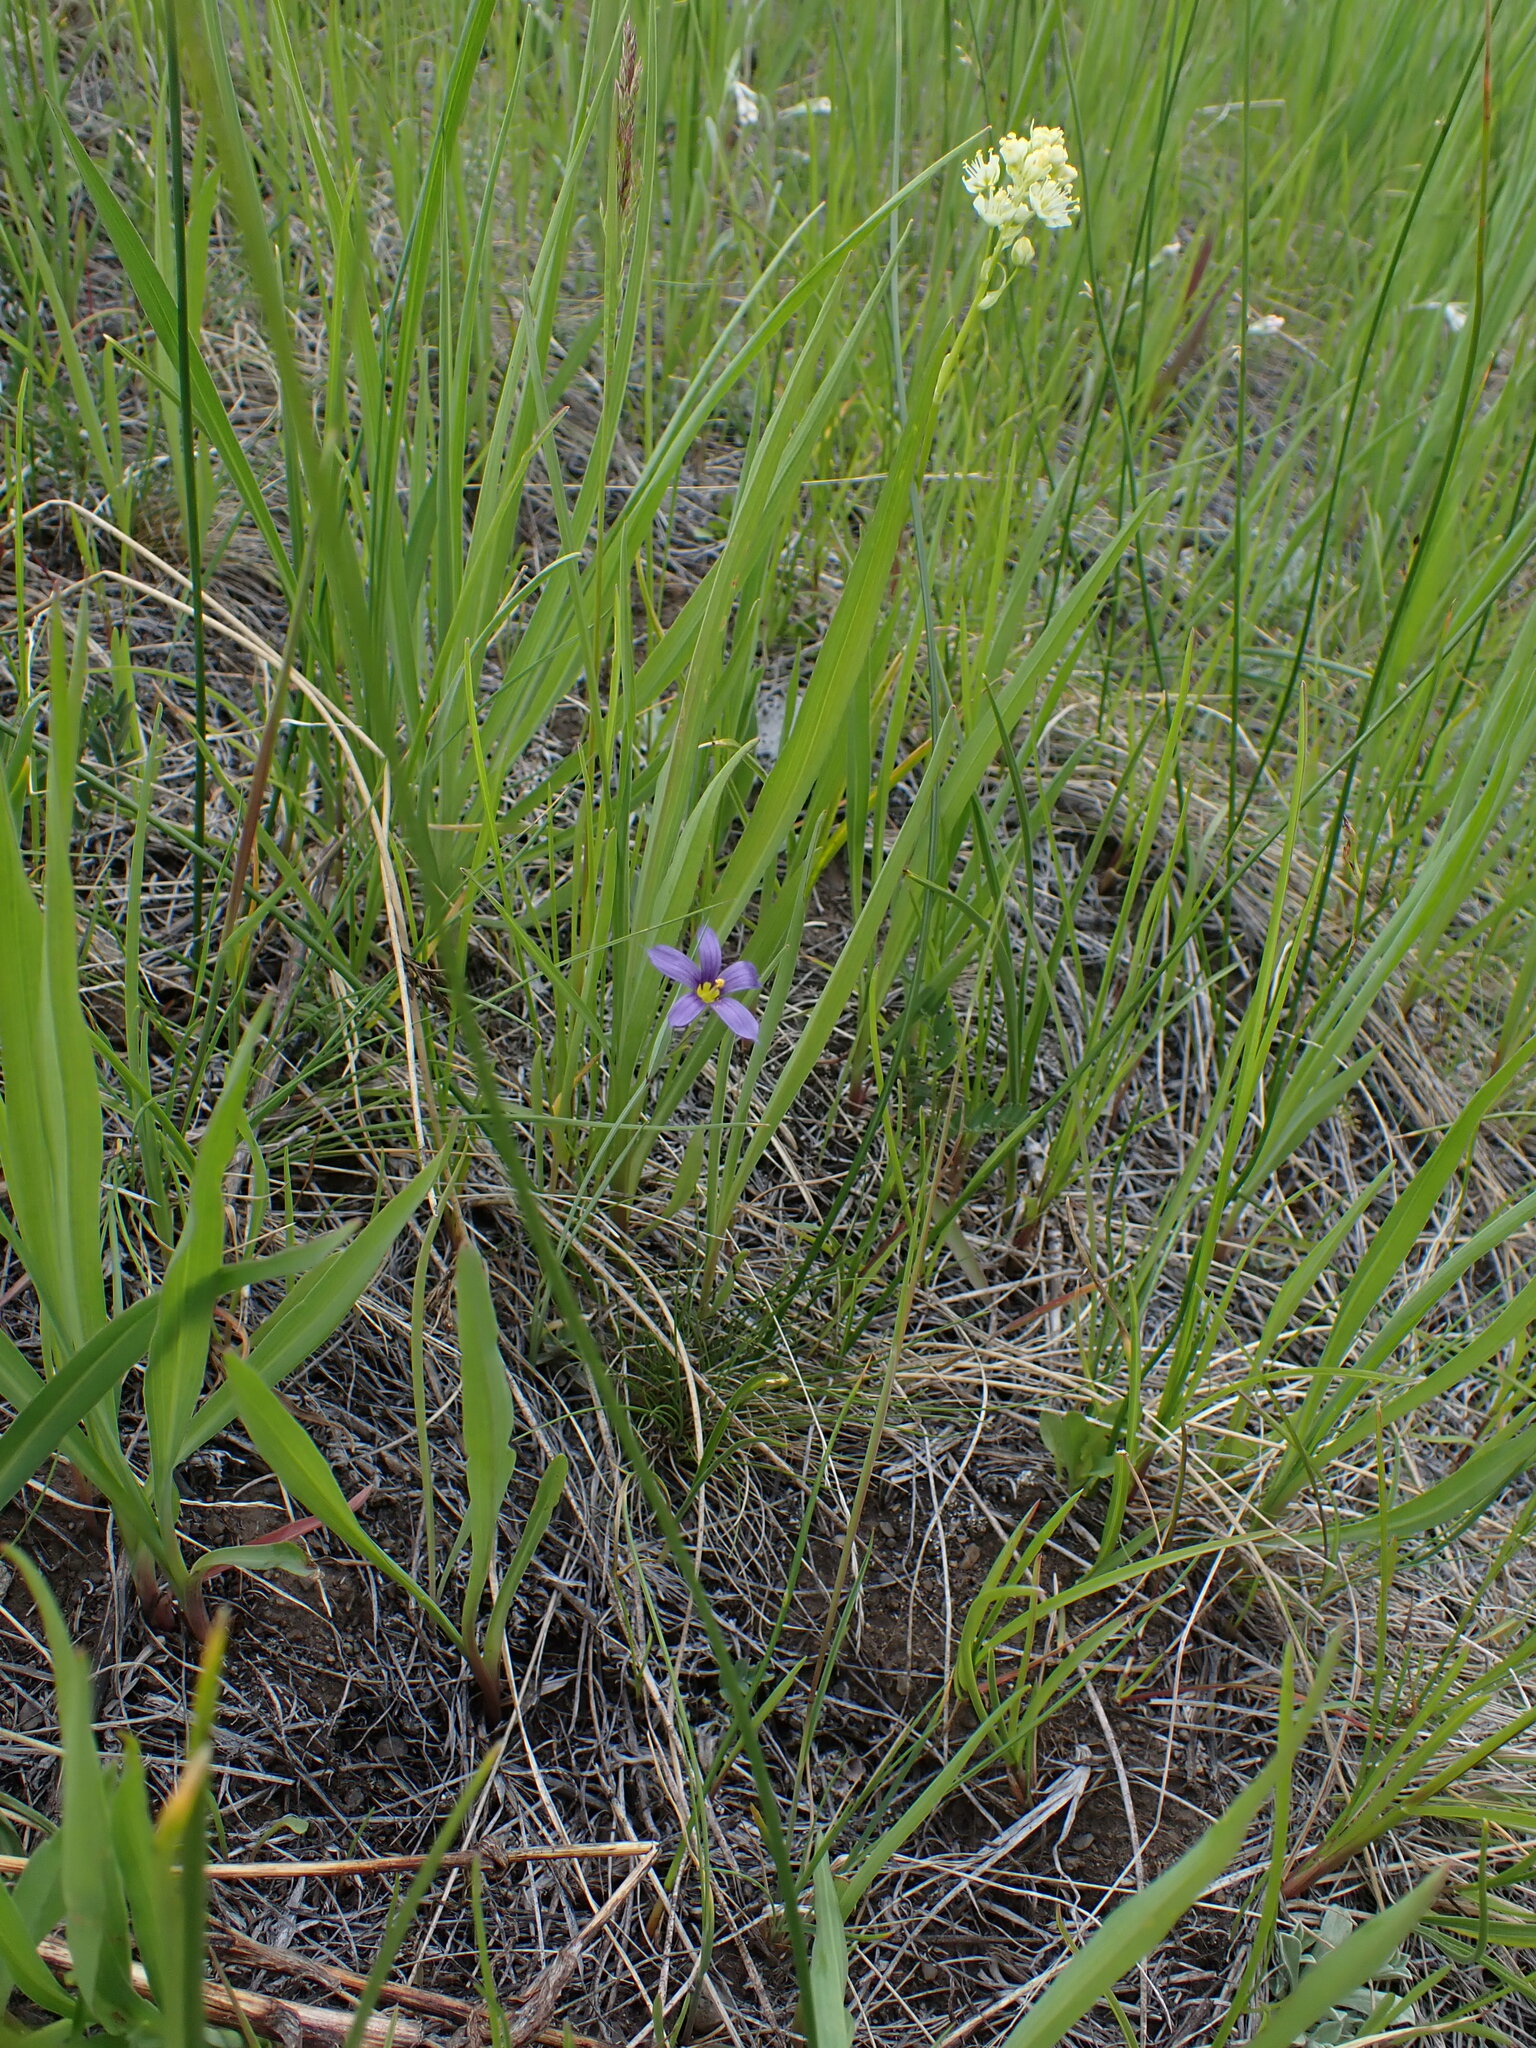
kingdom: Plantae
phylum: Tracheophyta
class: Liliopsida
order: Liliales
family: Melanthiaceae
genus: Toxicoscordion
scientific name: Toxicoscordion venenosum
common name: Meadow death camas
